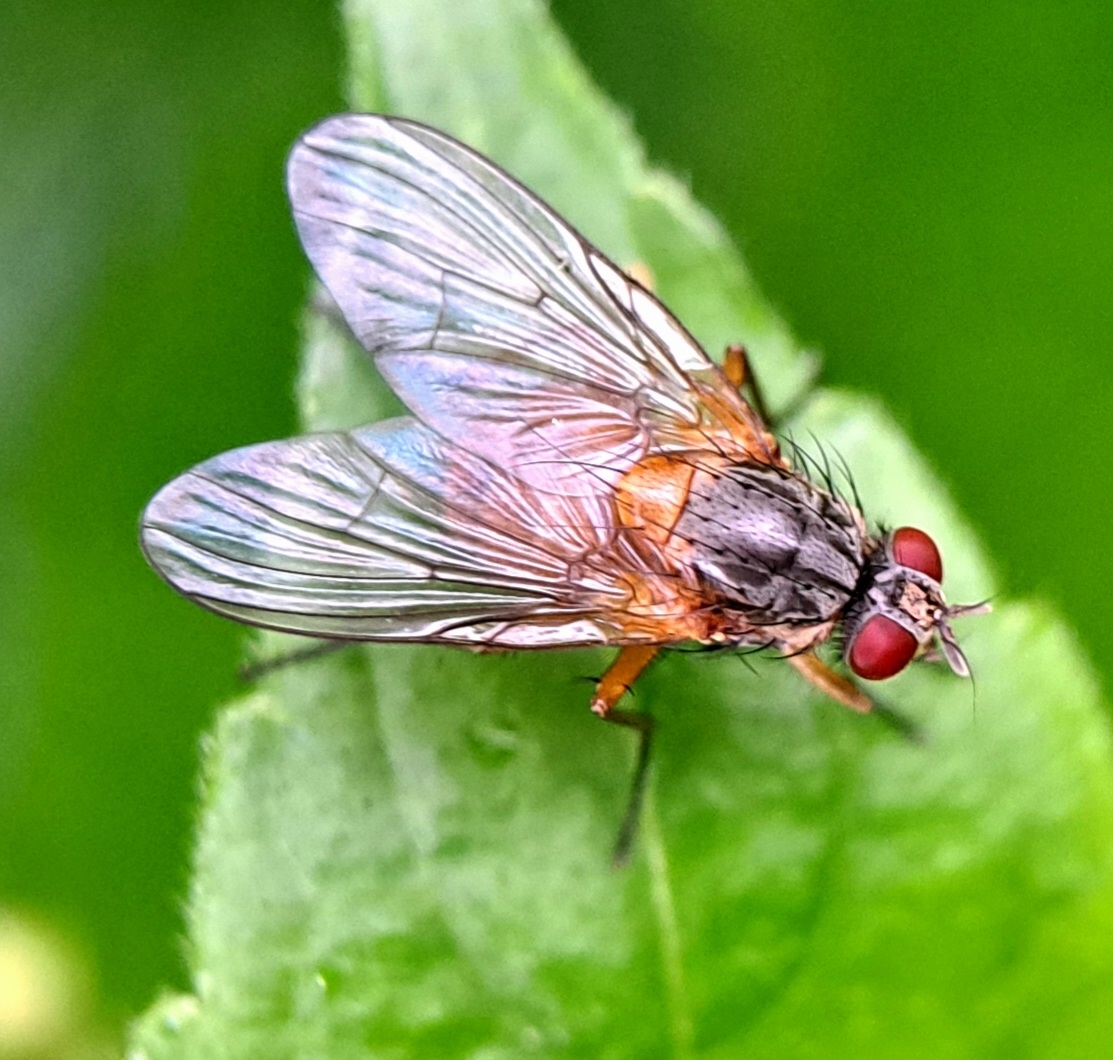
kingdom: Animalia
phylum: Arthropoda
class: Insecta
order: Diptera
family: Muscidae
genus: Phaonia
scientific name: Phaonia rufiventris
